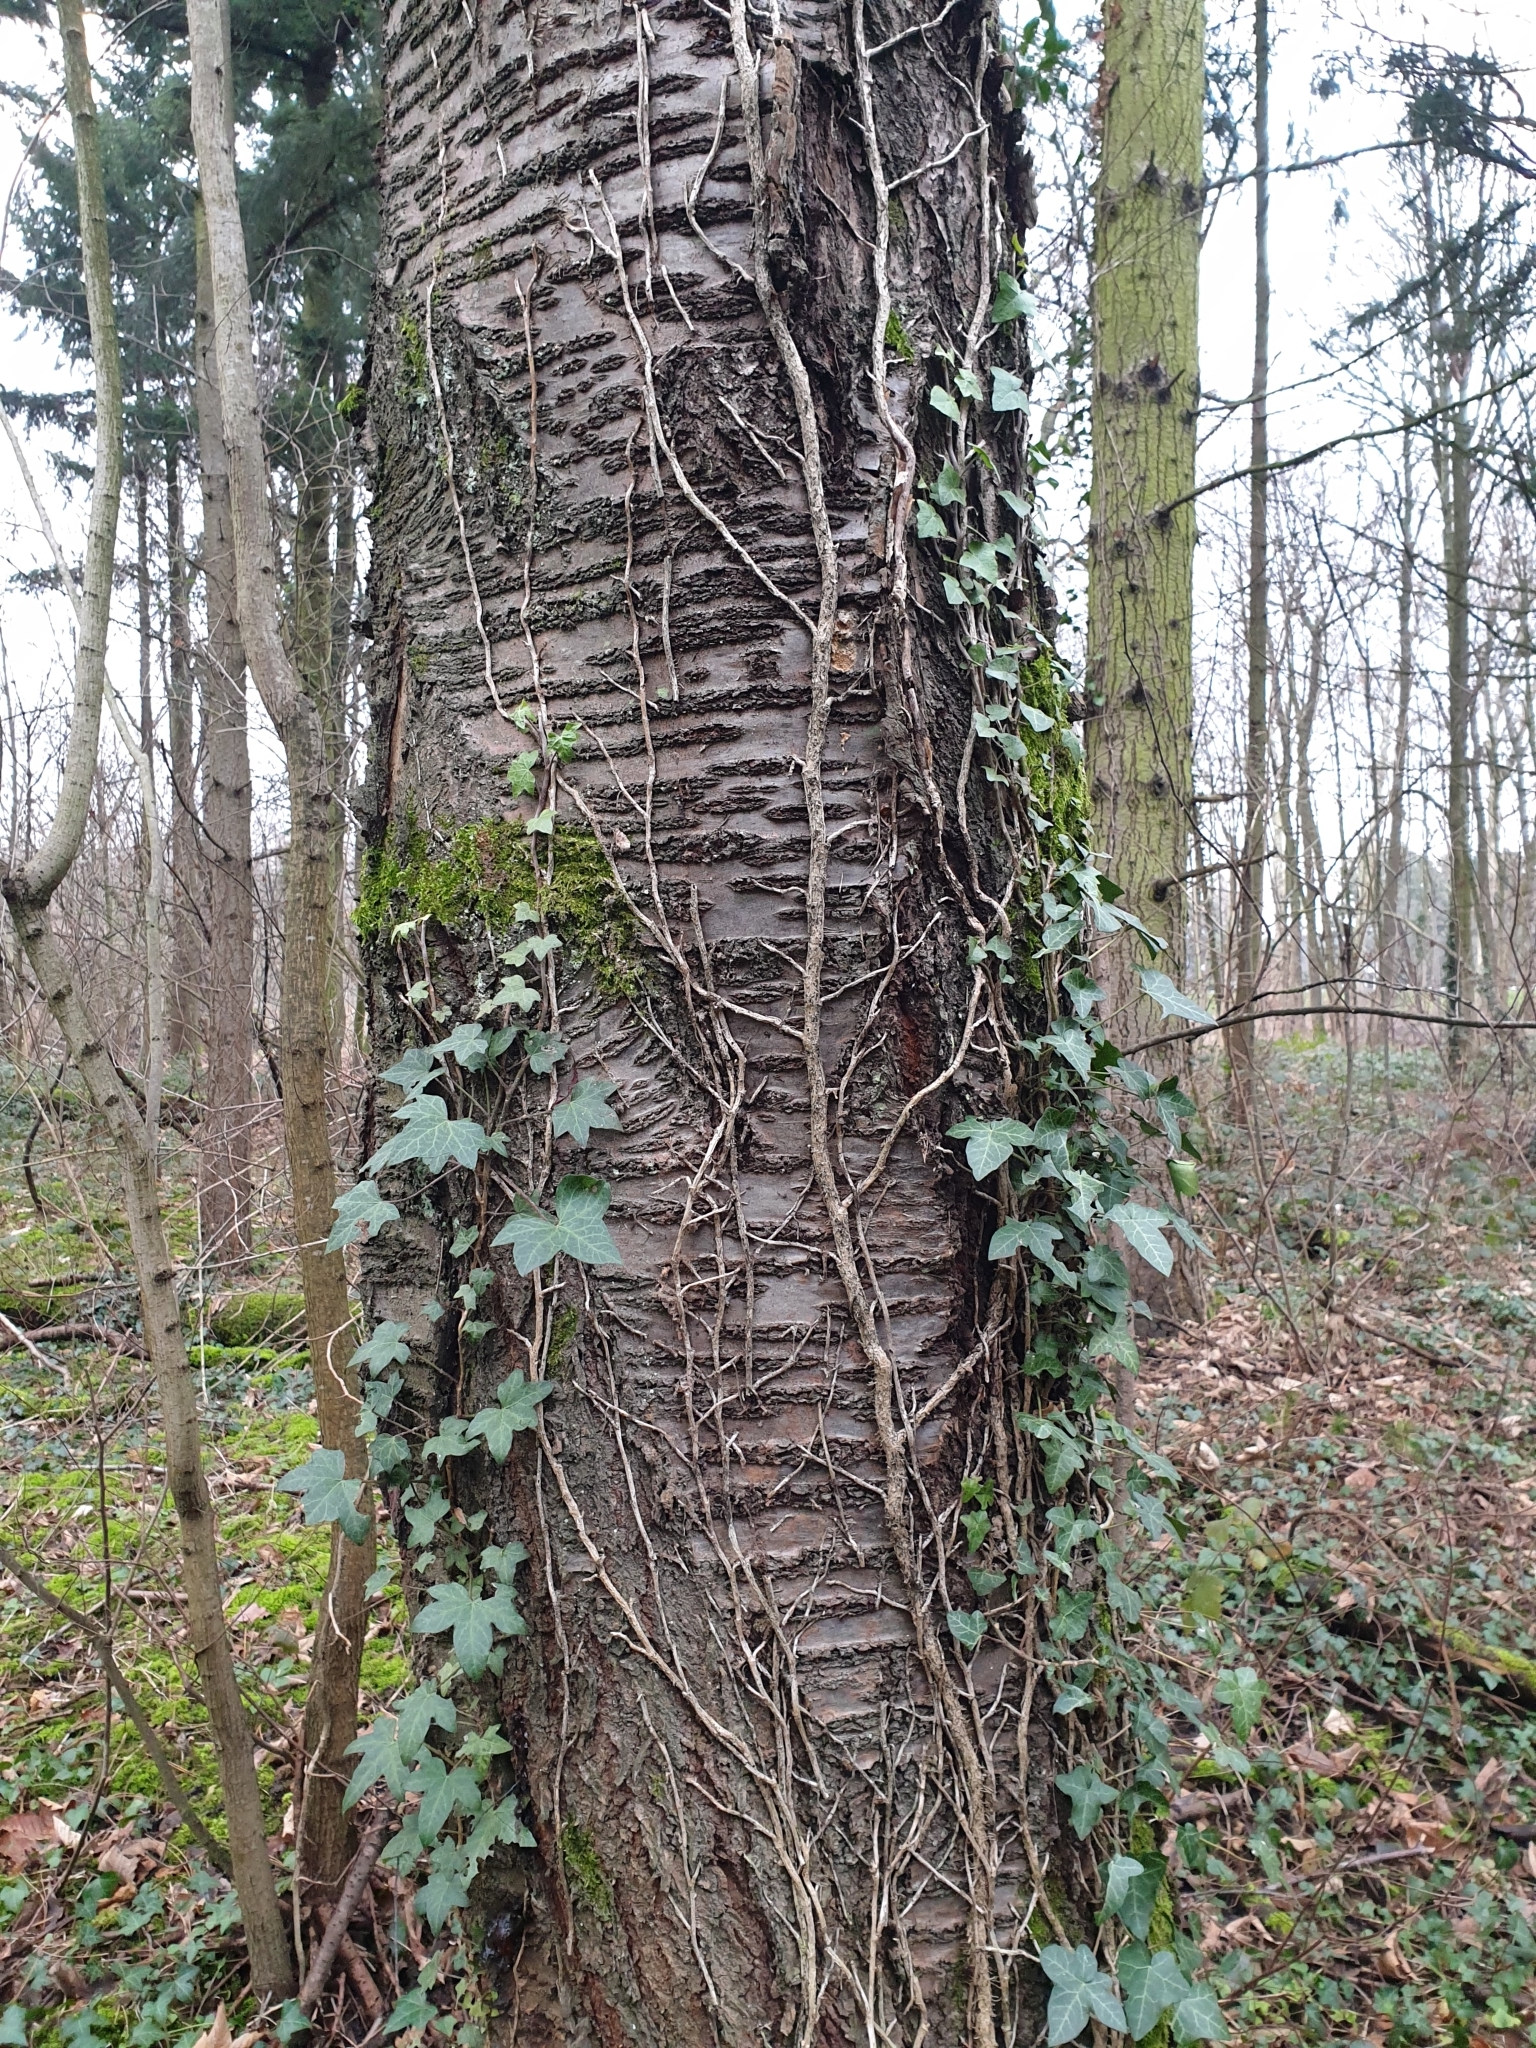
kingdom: Plantae
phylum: Tracheophyta
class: Magnoliopsida
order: Rosales
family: Rosaceae
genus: Prunus
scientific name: Prunus avium
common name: Sweet cherry
